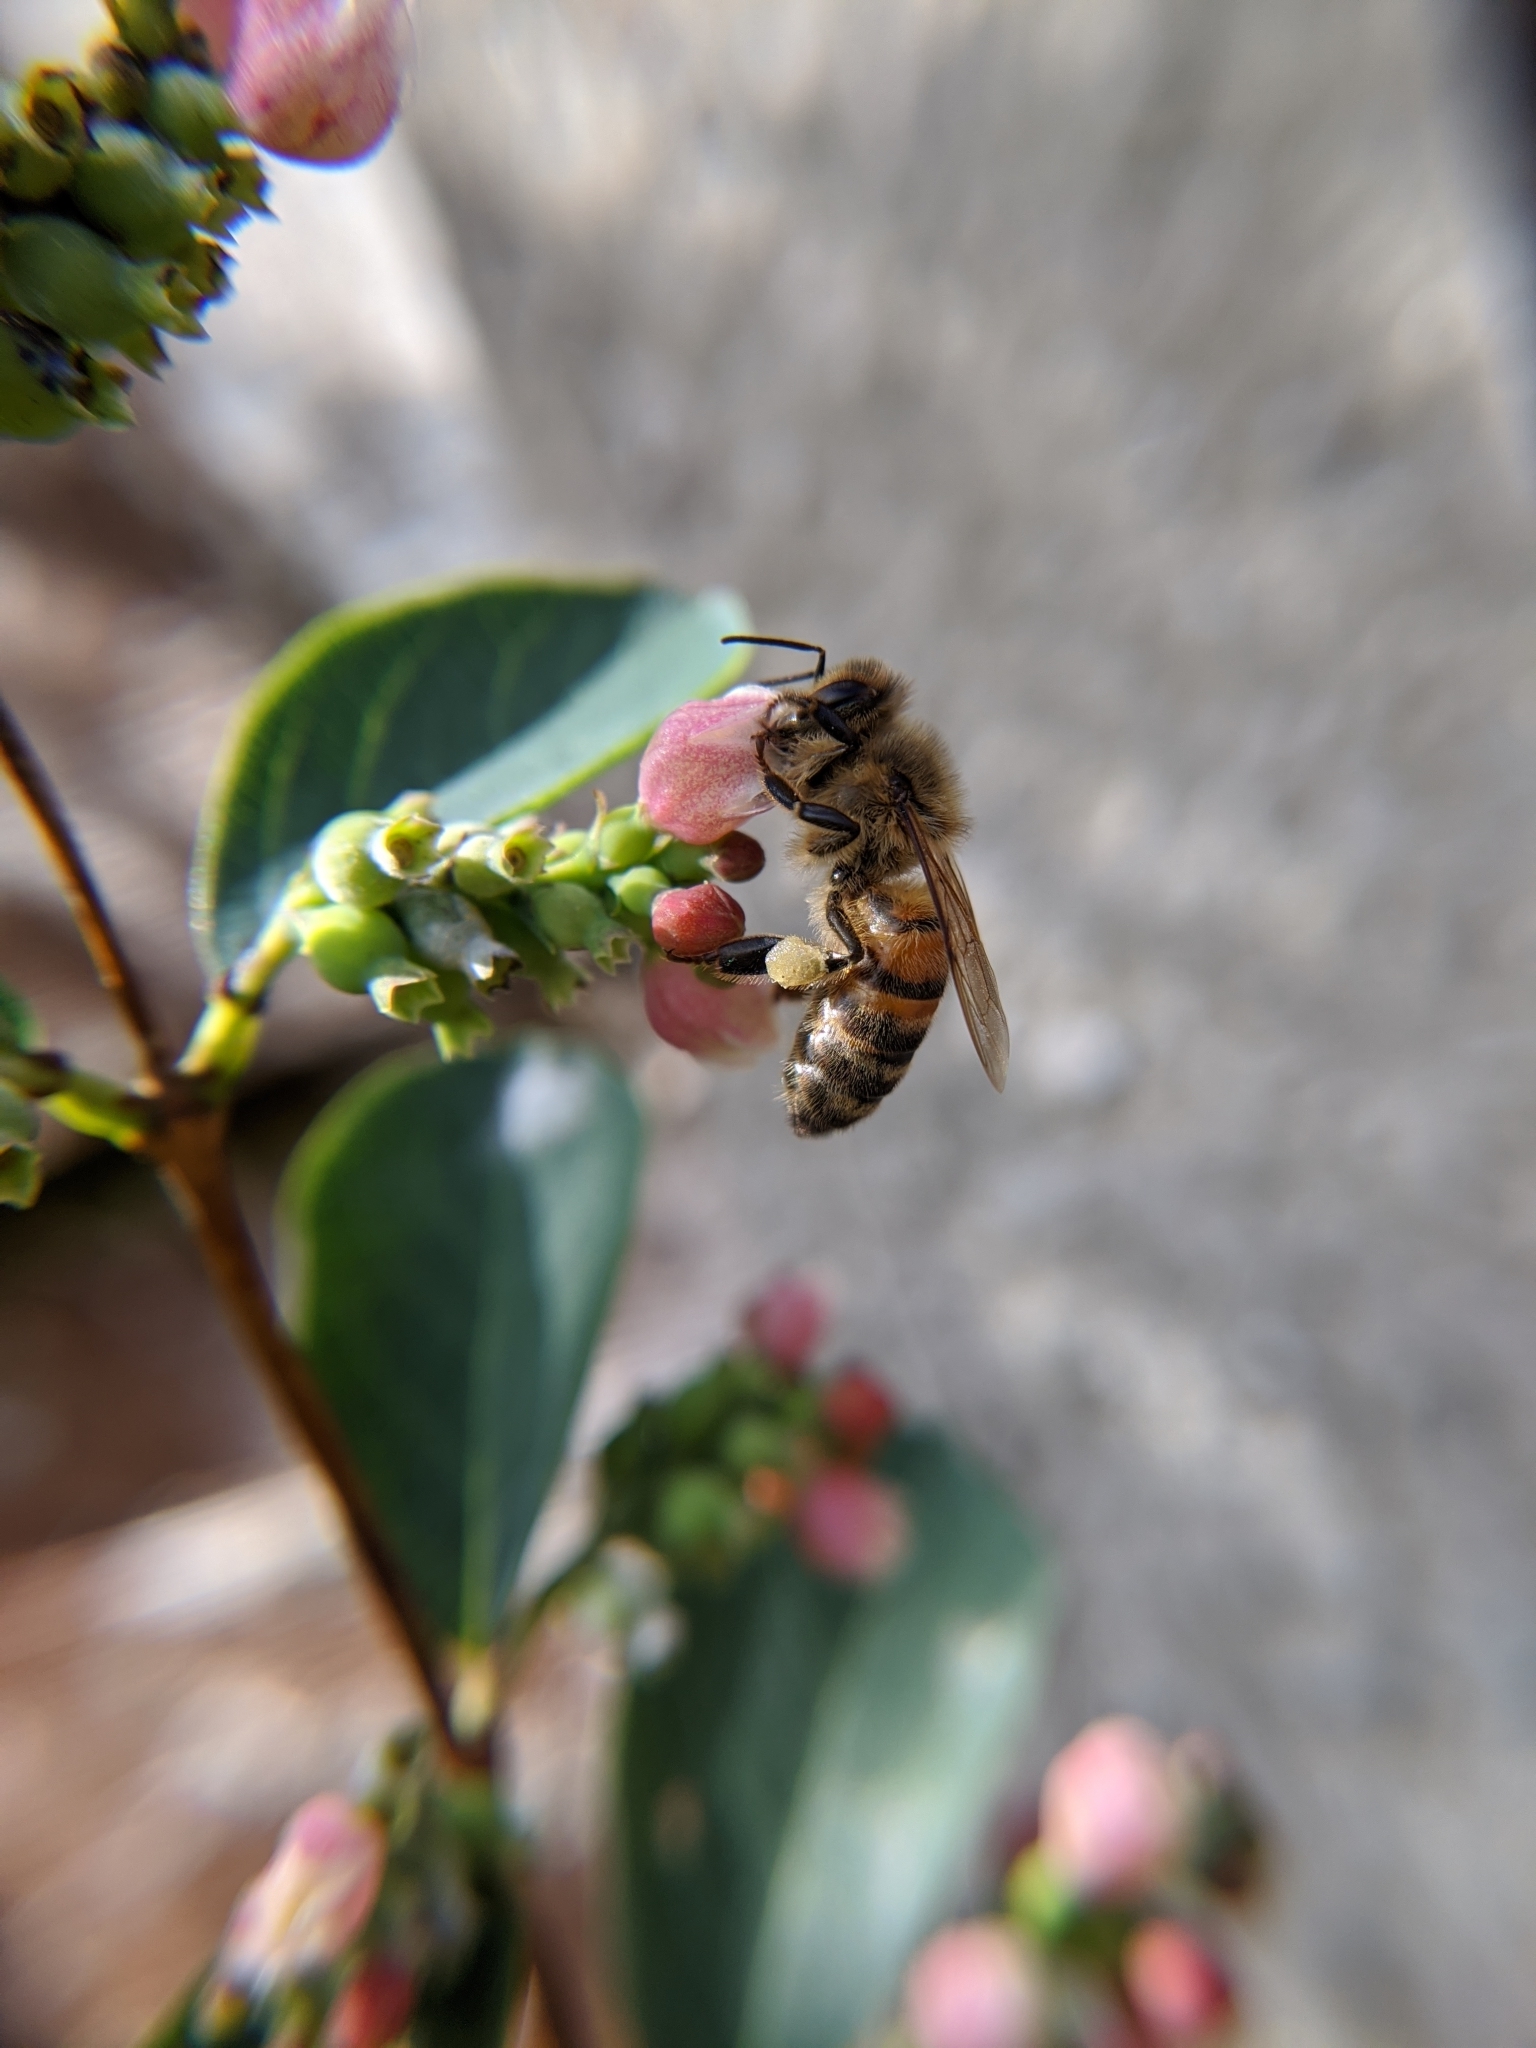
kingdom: Animalia
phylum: Arthropoda
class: Insecta
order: Hymenoptera
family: Apidae
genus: Apis
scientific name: Apis mellifera
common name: Honey bee
